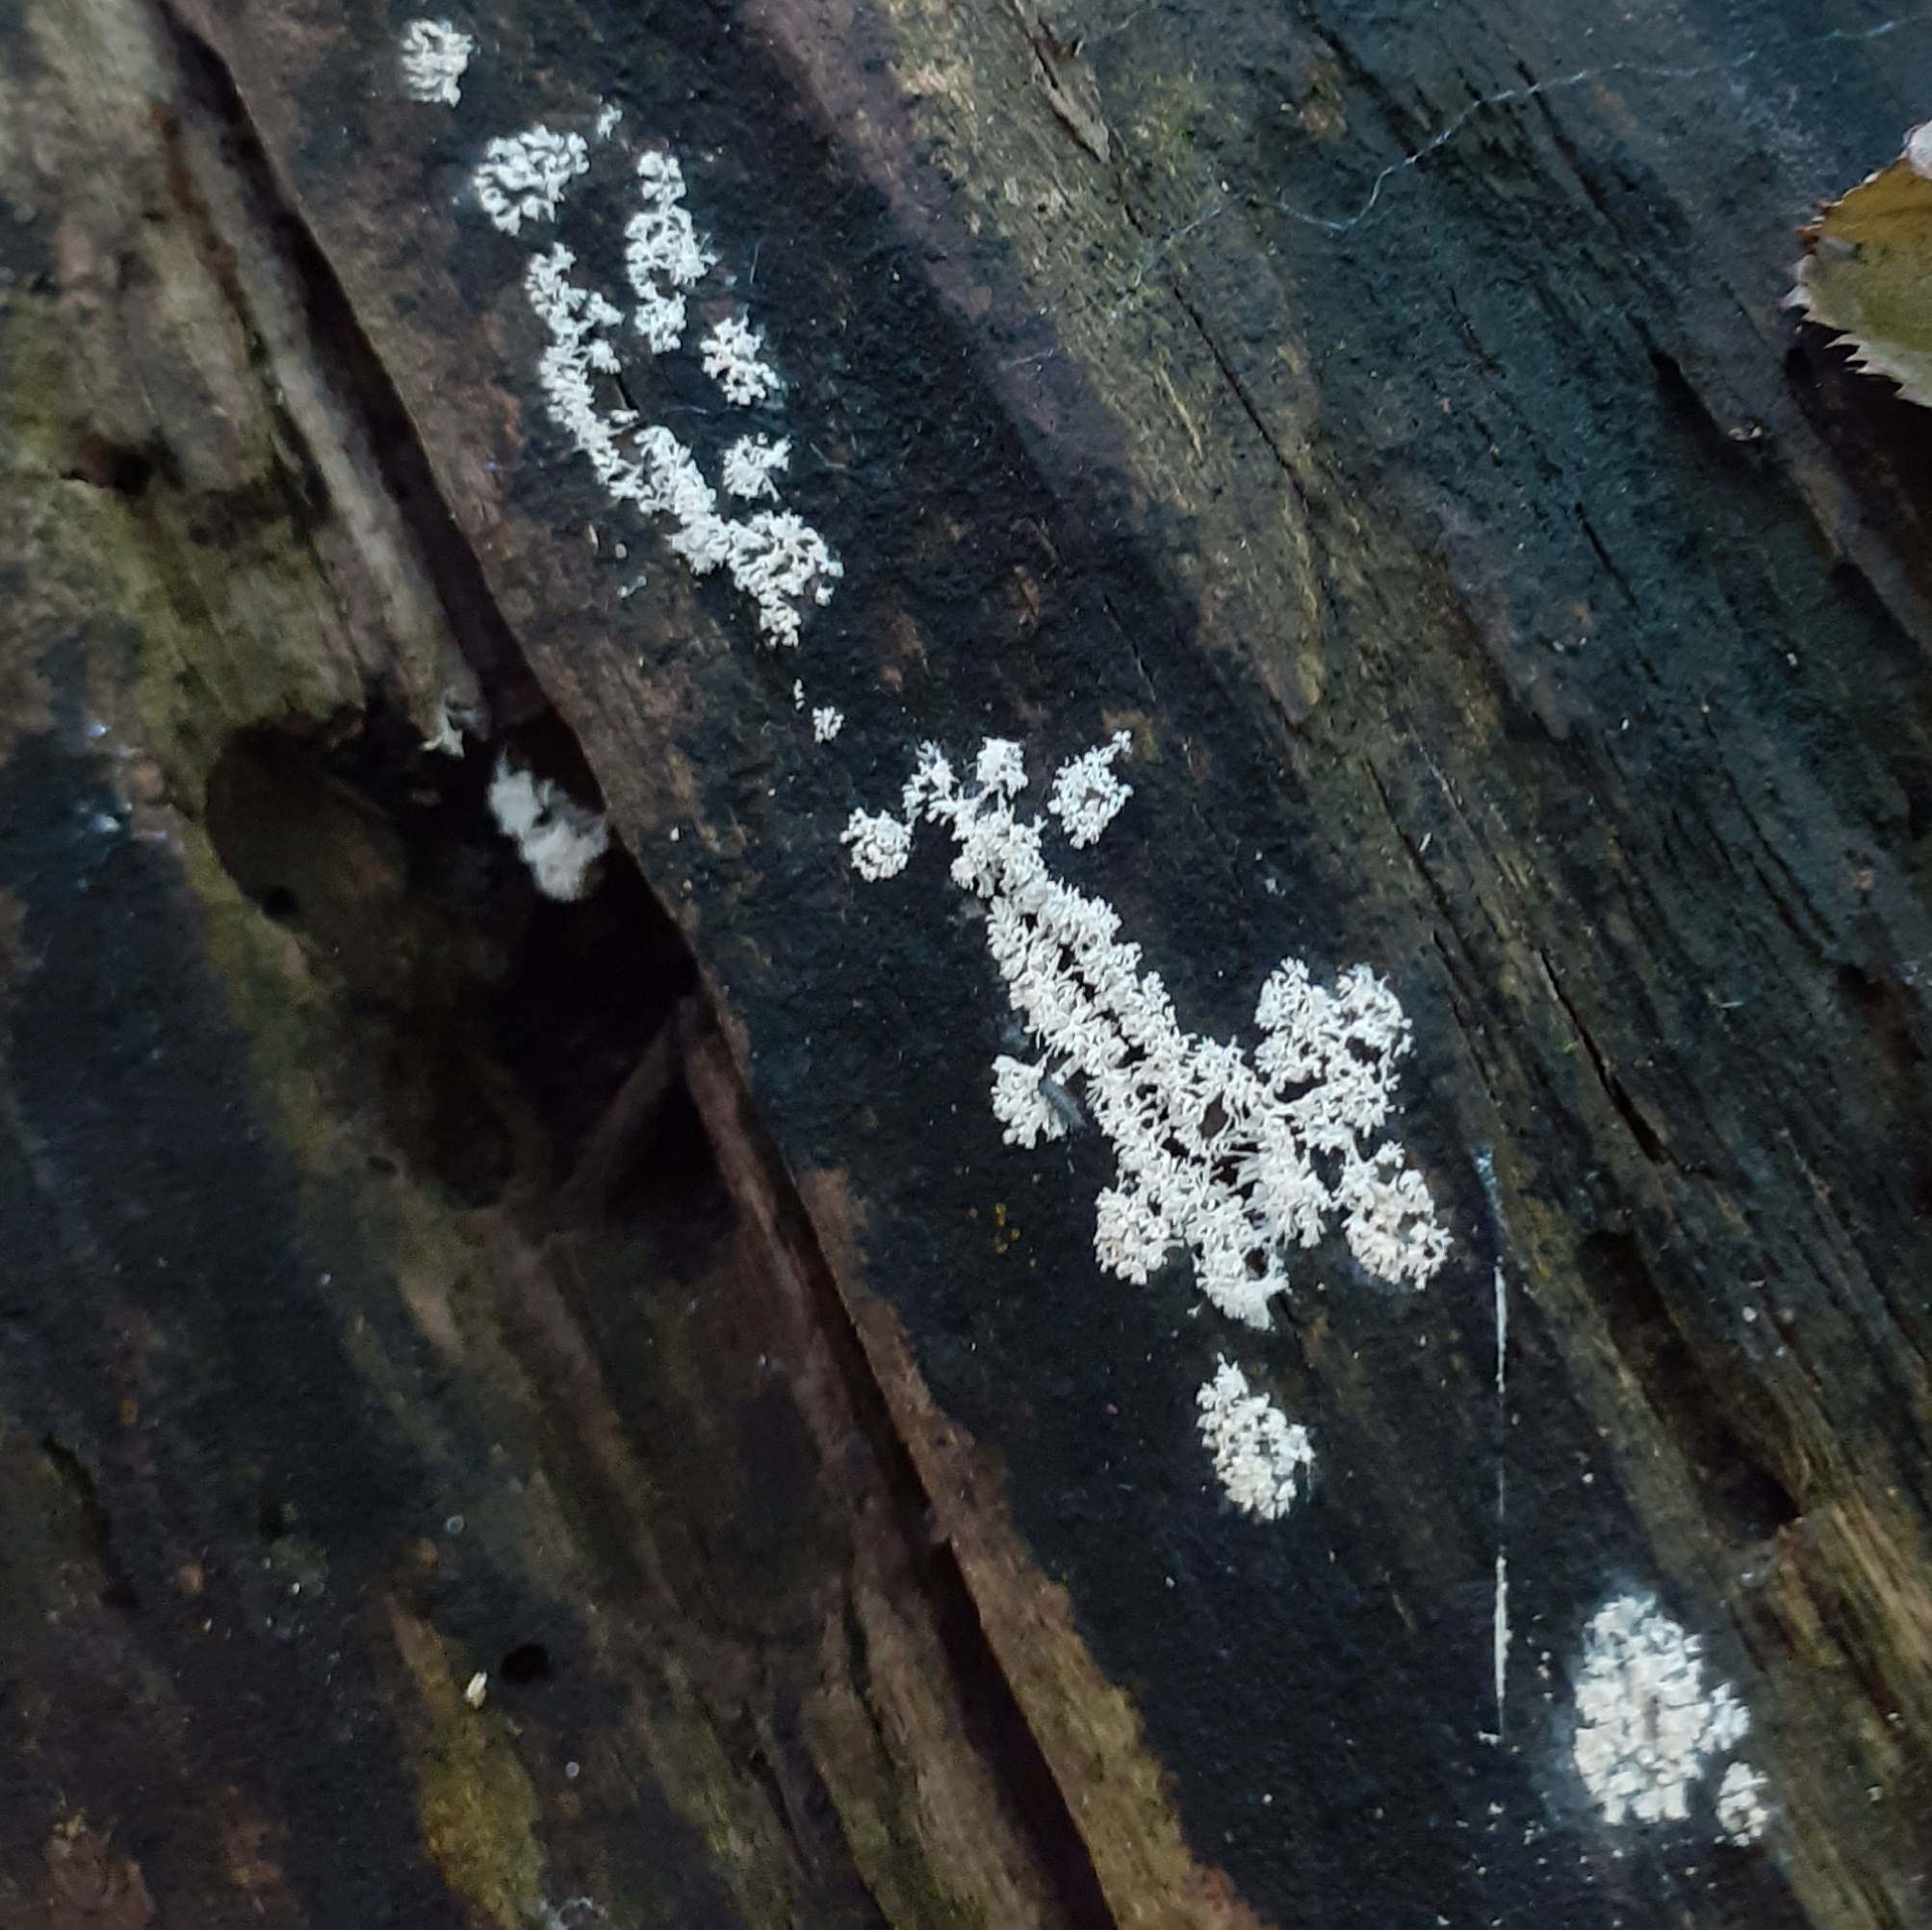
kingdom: Protozoa
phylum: Mycetozoa
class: Protosteliomycetes
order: Ceratiomyxales
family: Ceratiomyxaceae
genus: Ceratiomyxa
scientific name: Ceratiomyxa fruticulosa
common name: Honeycomb coral slime mold
